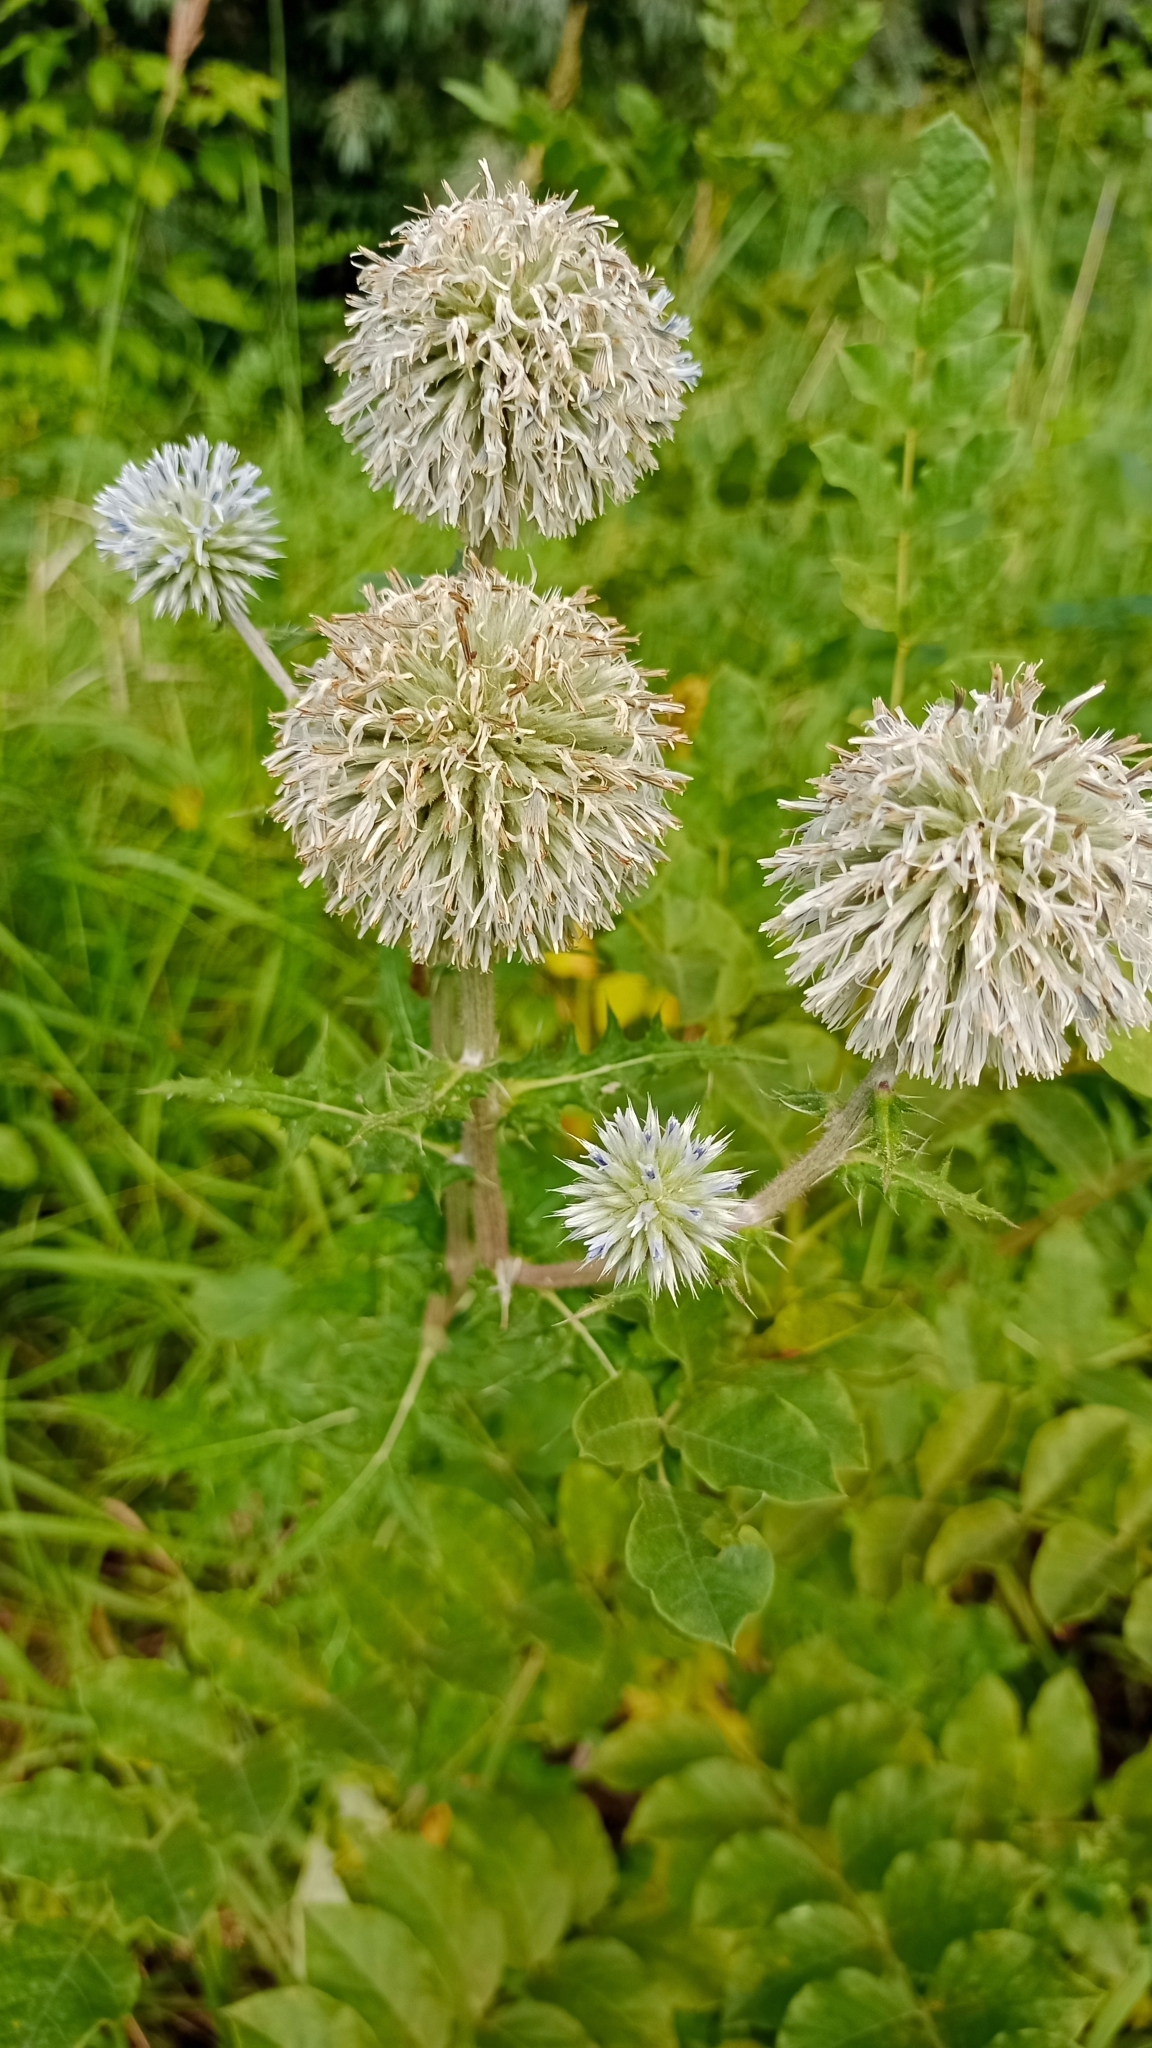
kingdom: Plantae
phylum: Tracheophyta
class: Magnoliopsida
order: Asterales
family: Asteraceae
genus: Echinops
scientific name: Echinops sphaerocephalus
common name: Glandular globe-thistle
